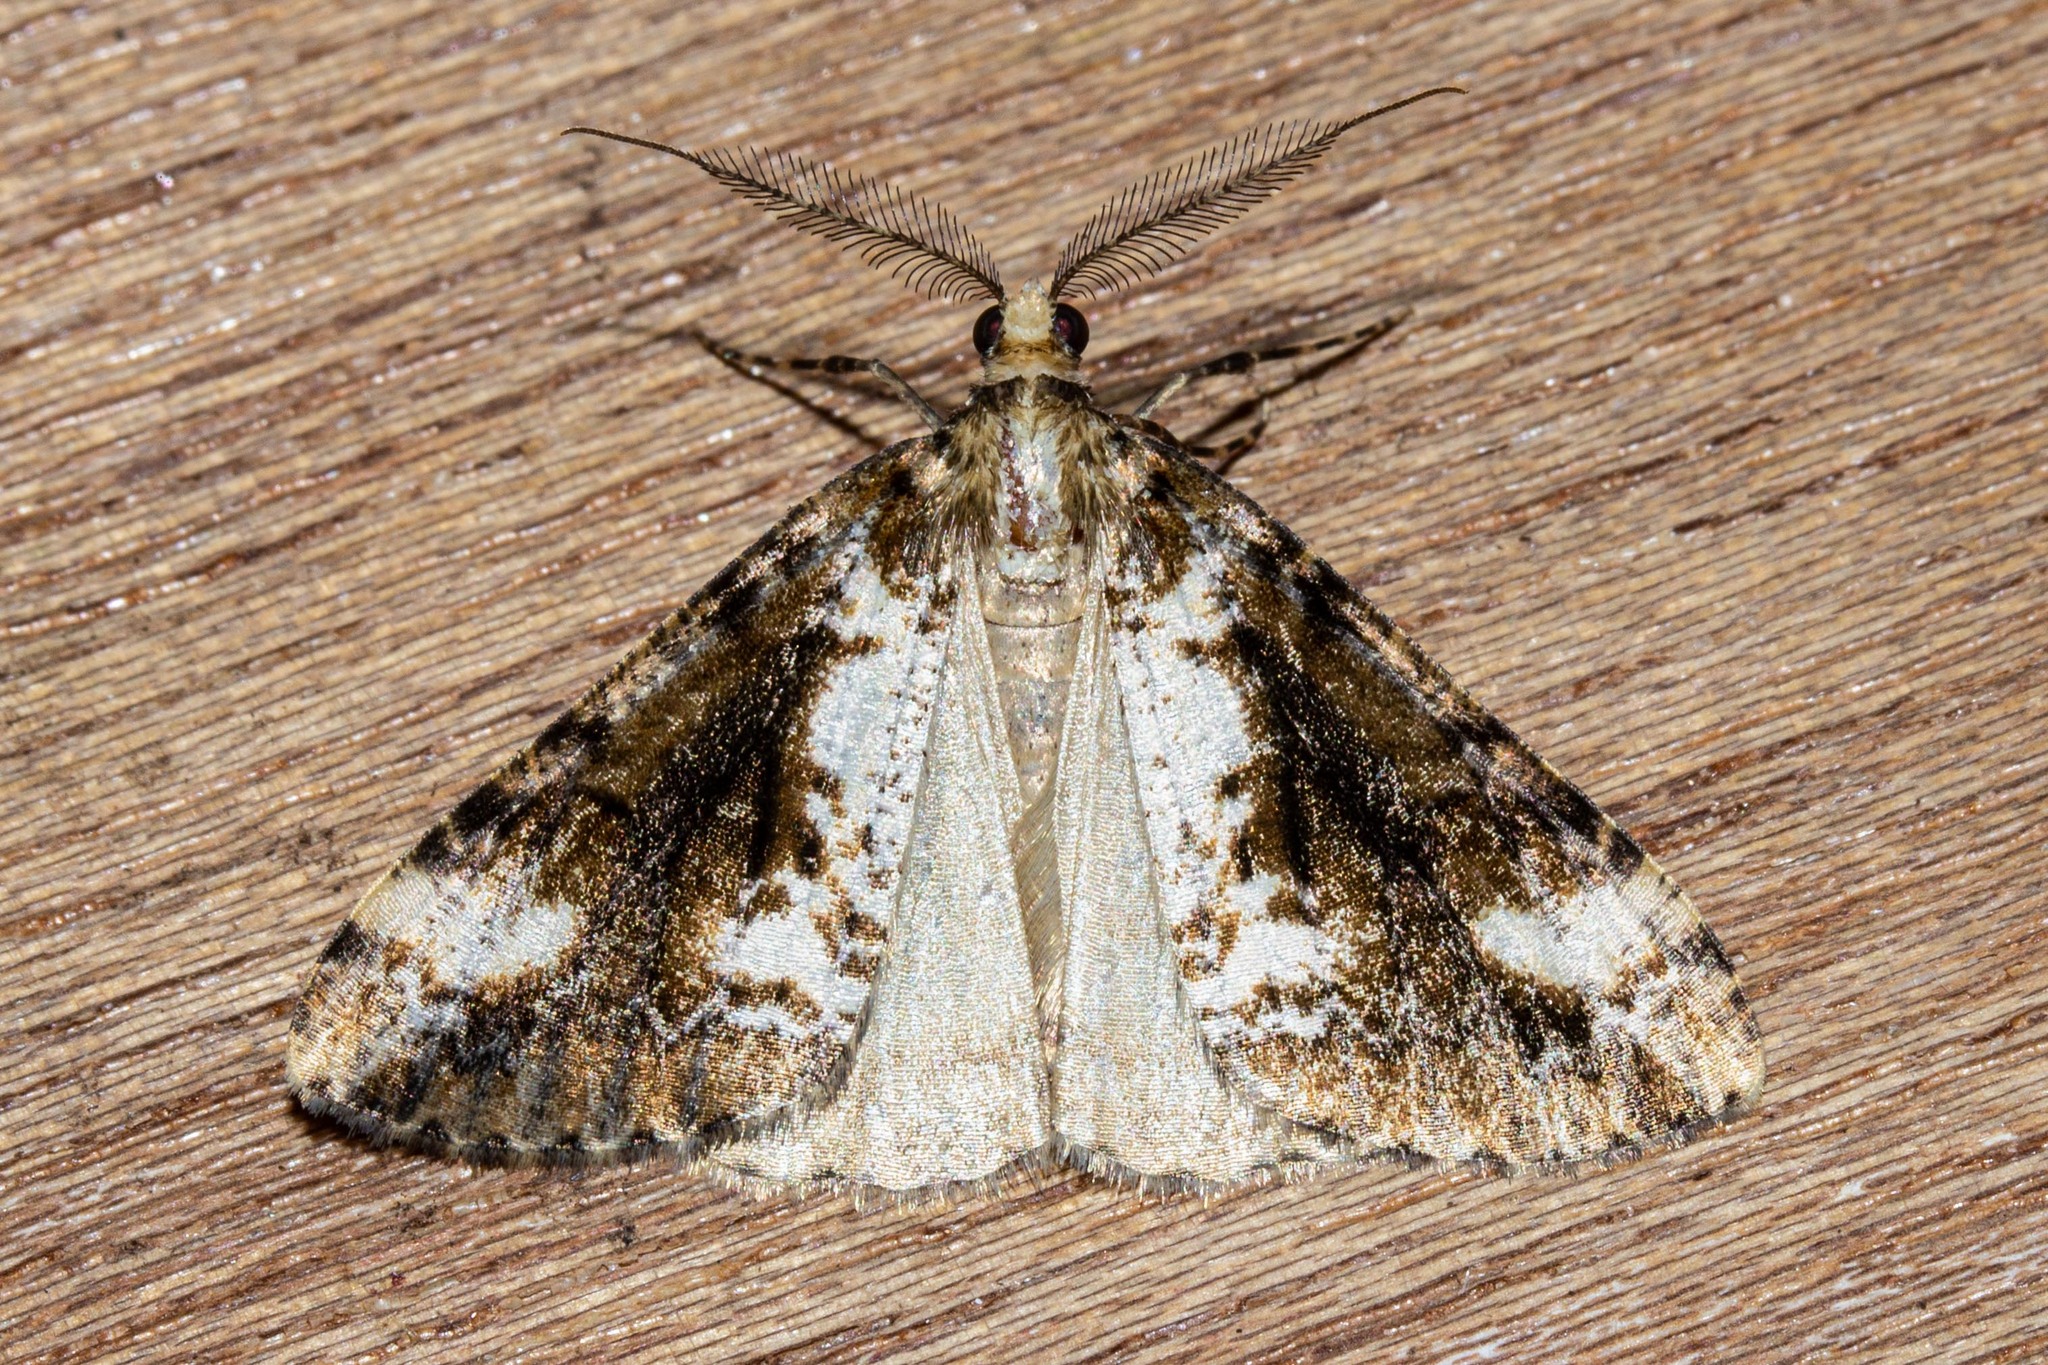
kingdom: Animalia
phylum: Arthropoda
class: Insecta
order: Lepidoptera
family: Geometridae
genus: Pseudocoremia
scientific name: Pseudocoremia leucelaea
